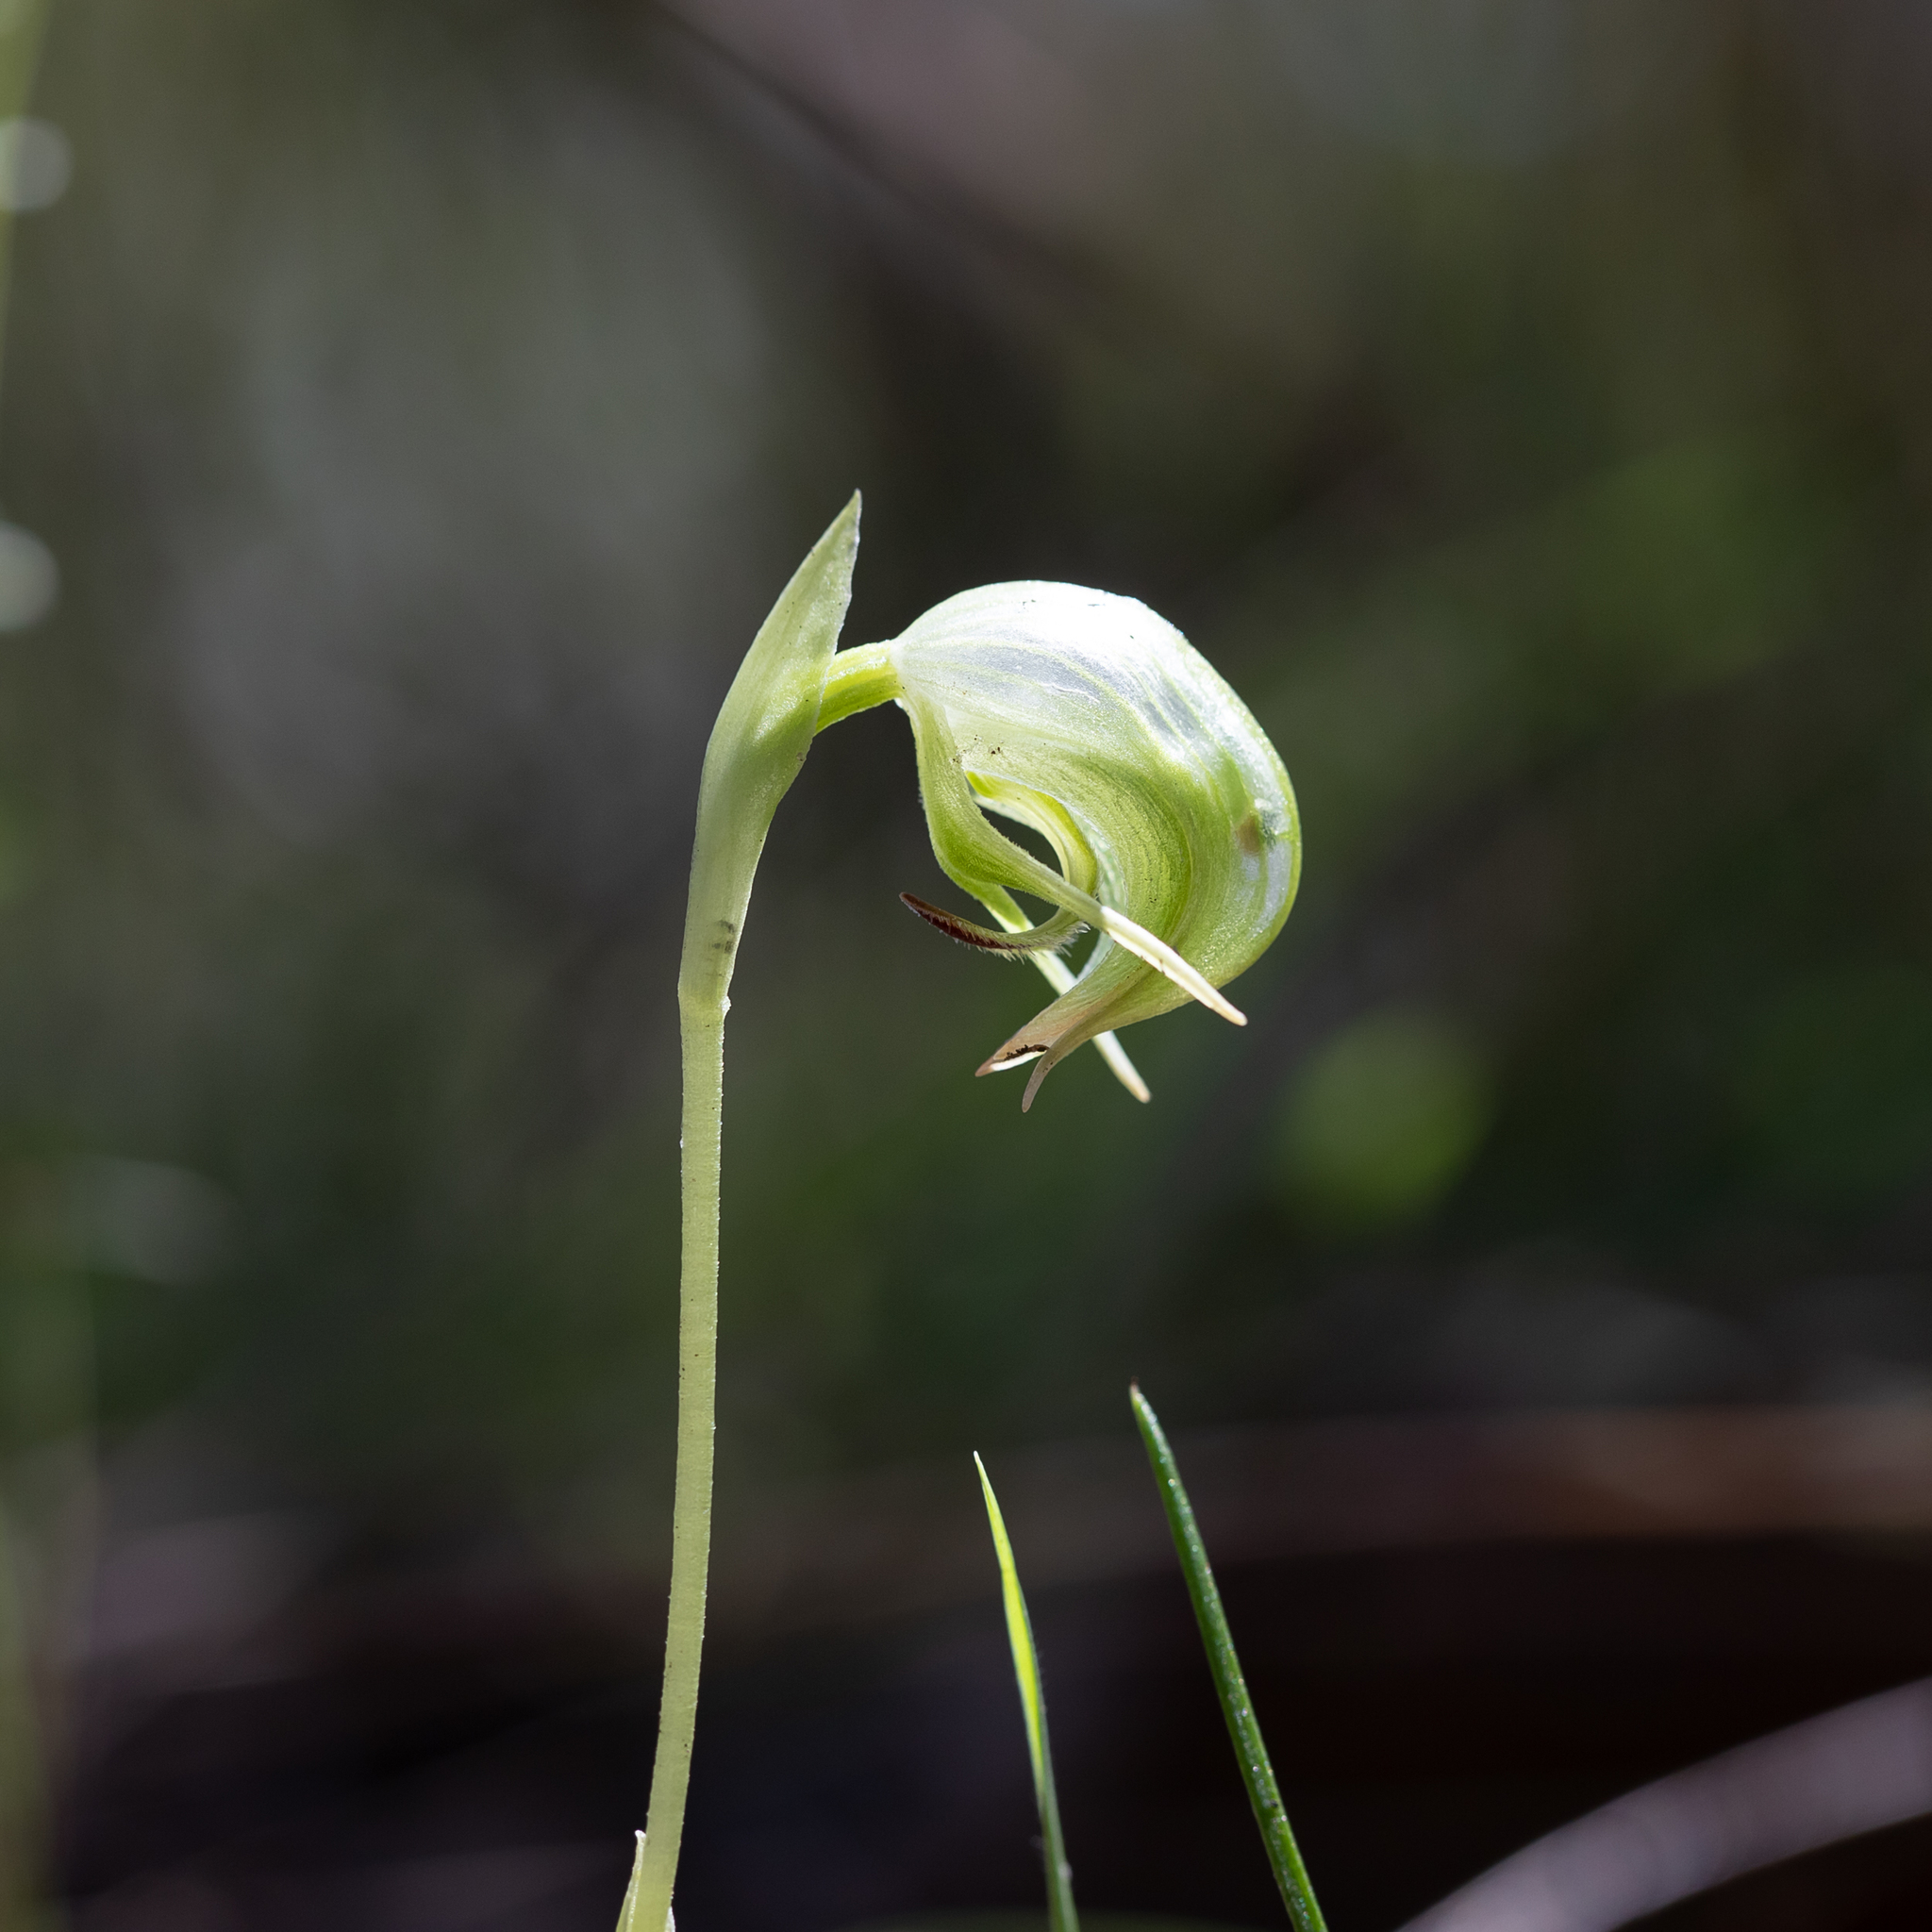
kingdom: Plantae
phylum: Tracheophyta
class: Liliopsida
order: Asparagales
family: Orchidaceae
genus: Pterostylis
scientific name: Pterostylis nutans
